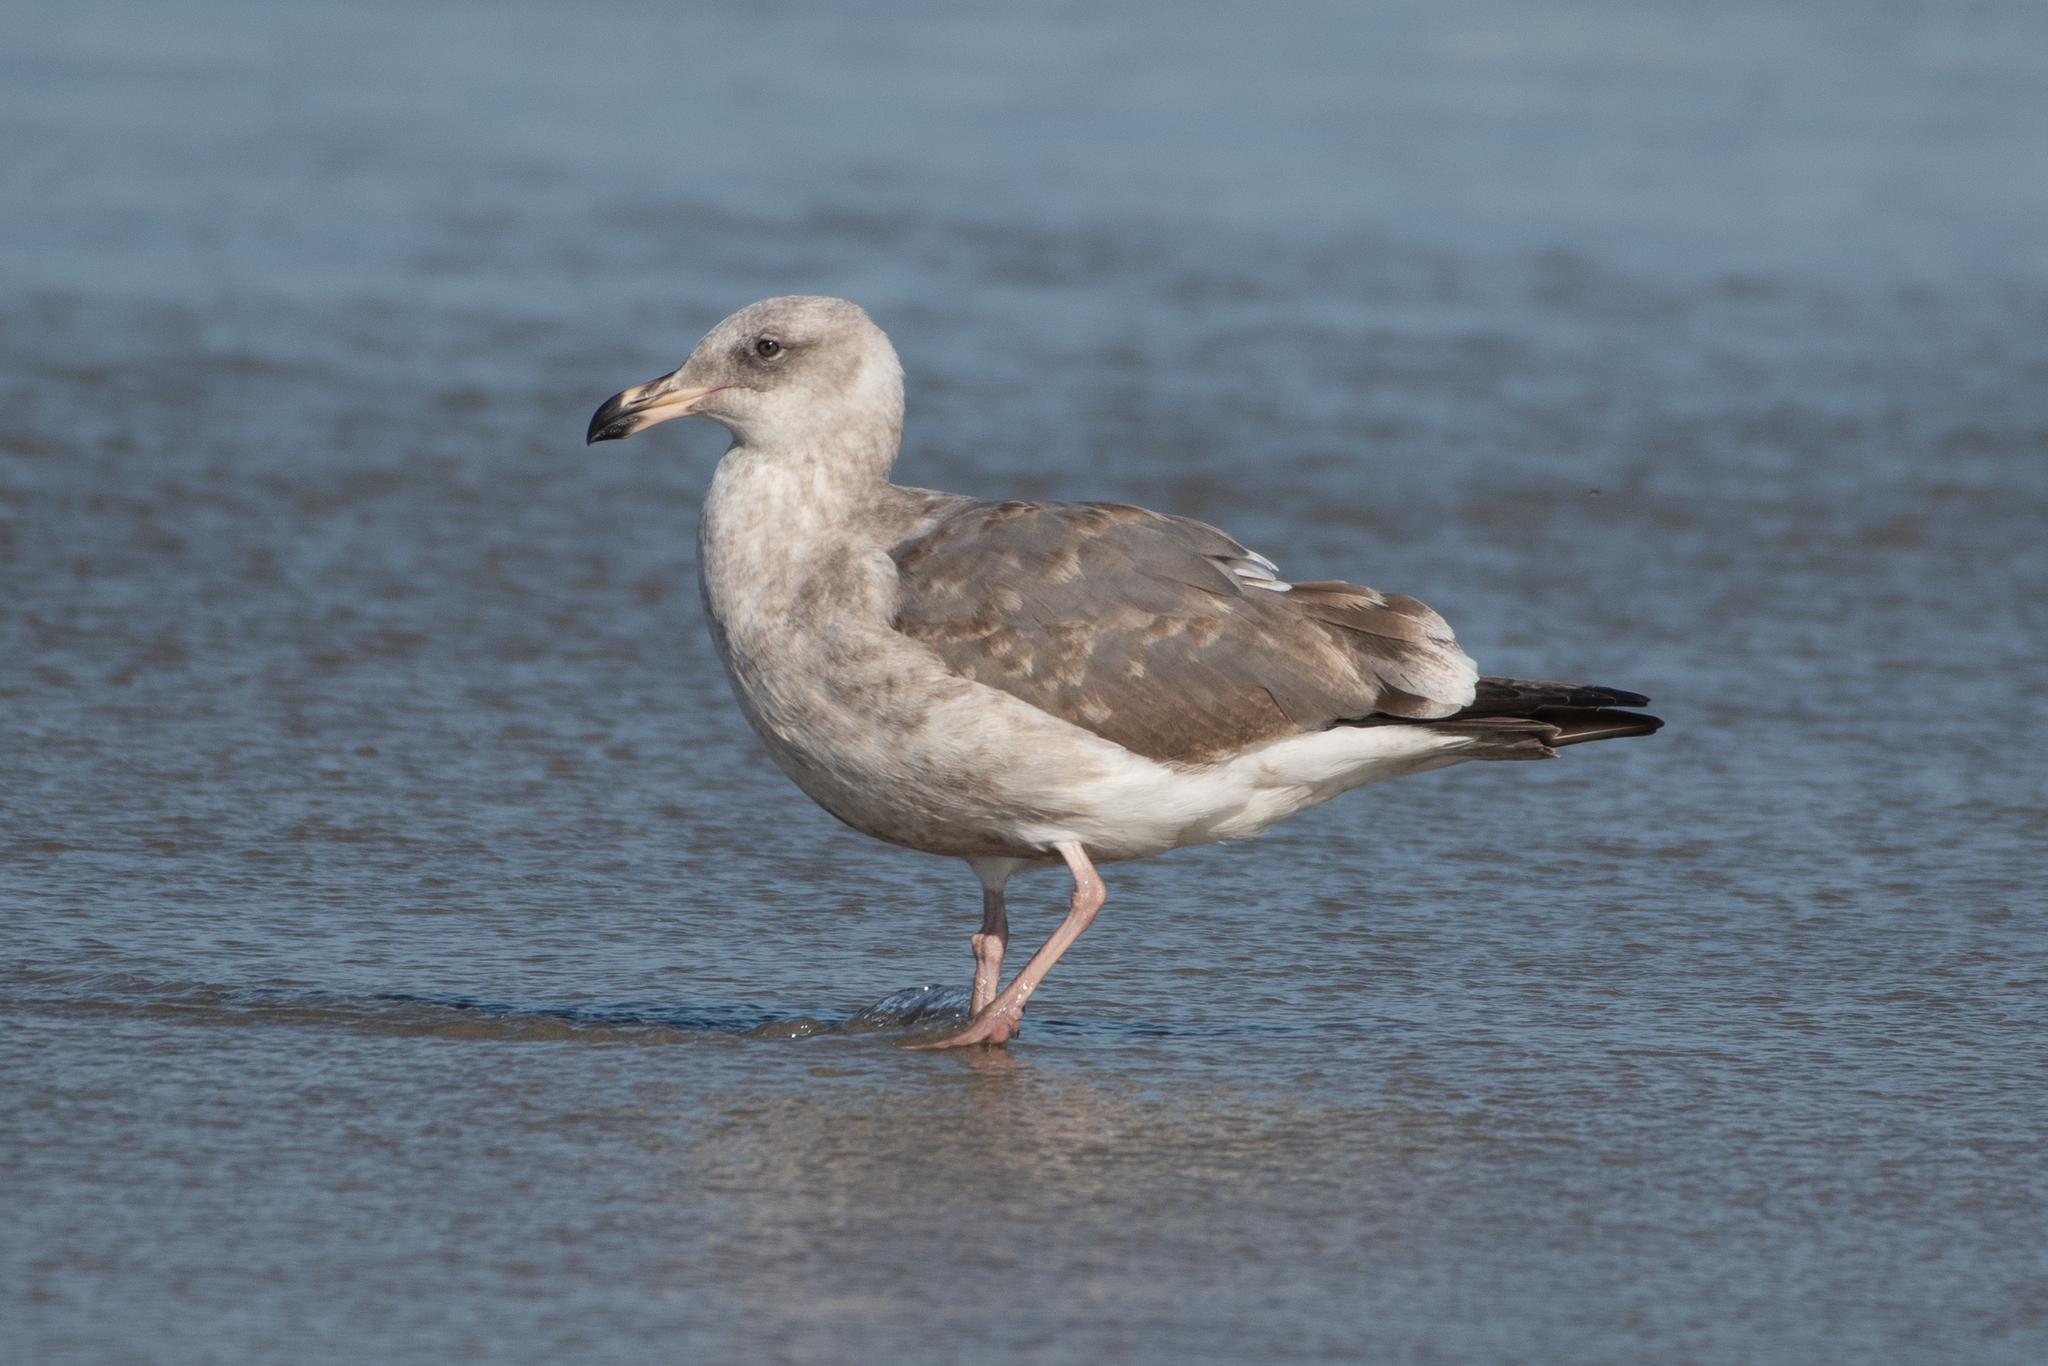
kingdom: Animalia
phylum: Chordata
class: Aves
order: Charadriiformes
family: Laridae
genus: Larus
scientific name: Larus occidentalis
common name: Western gull
